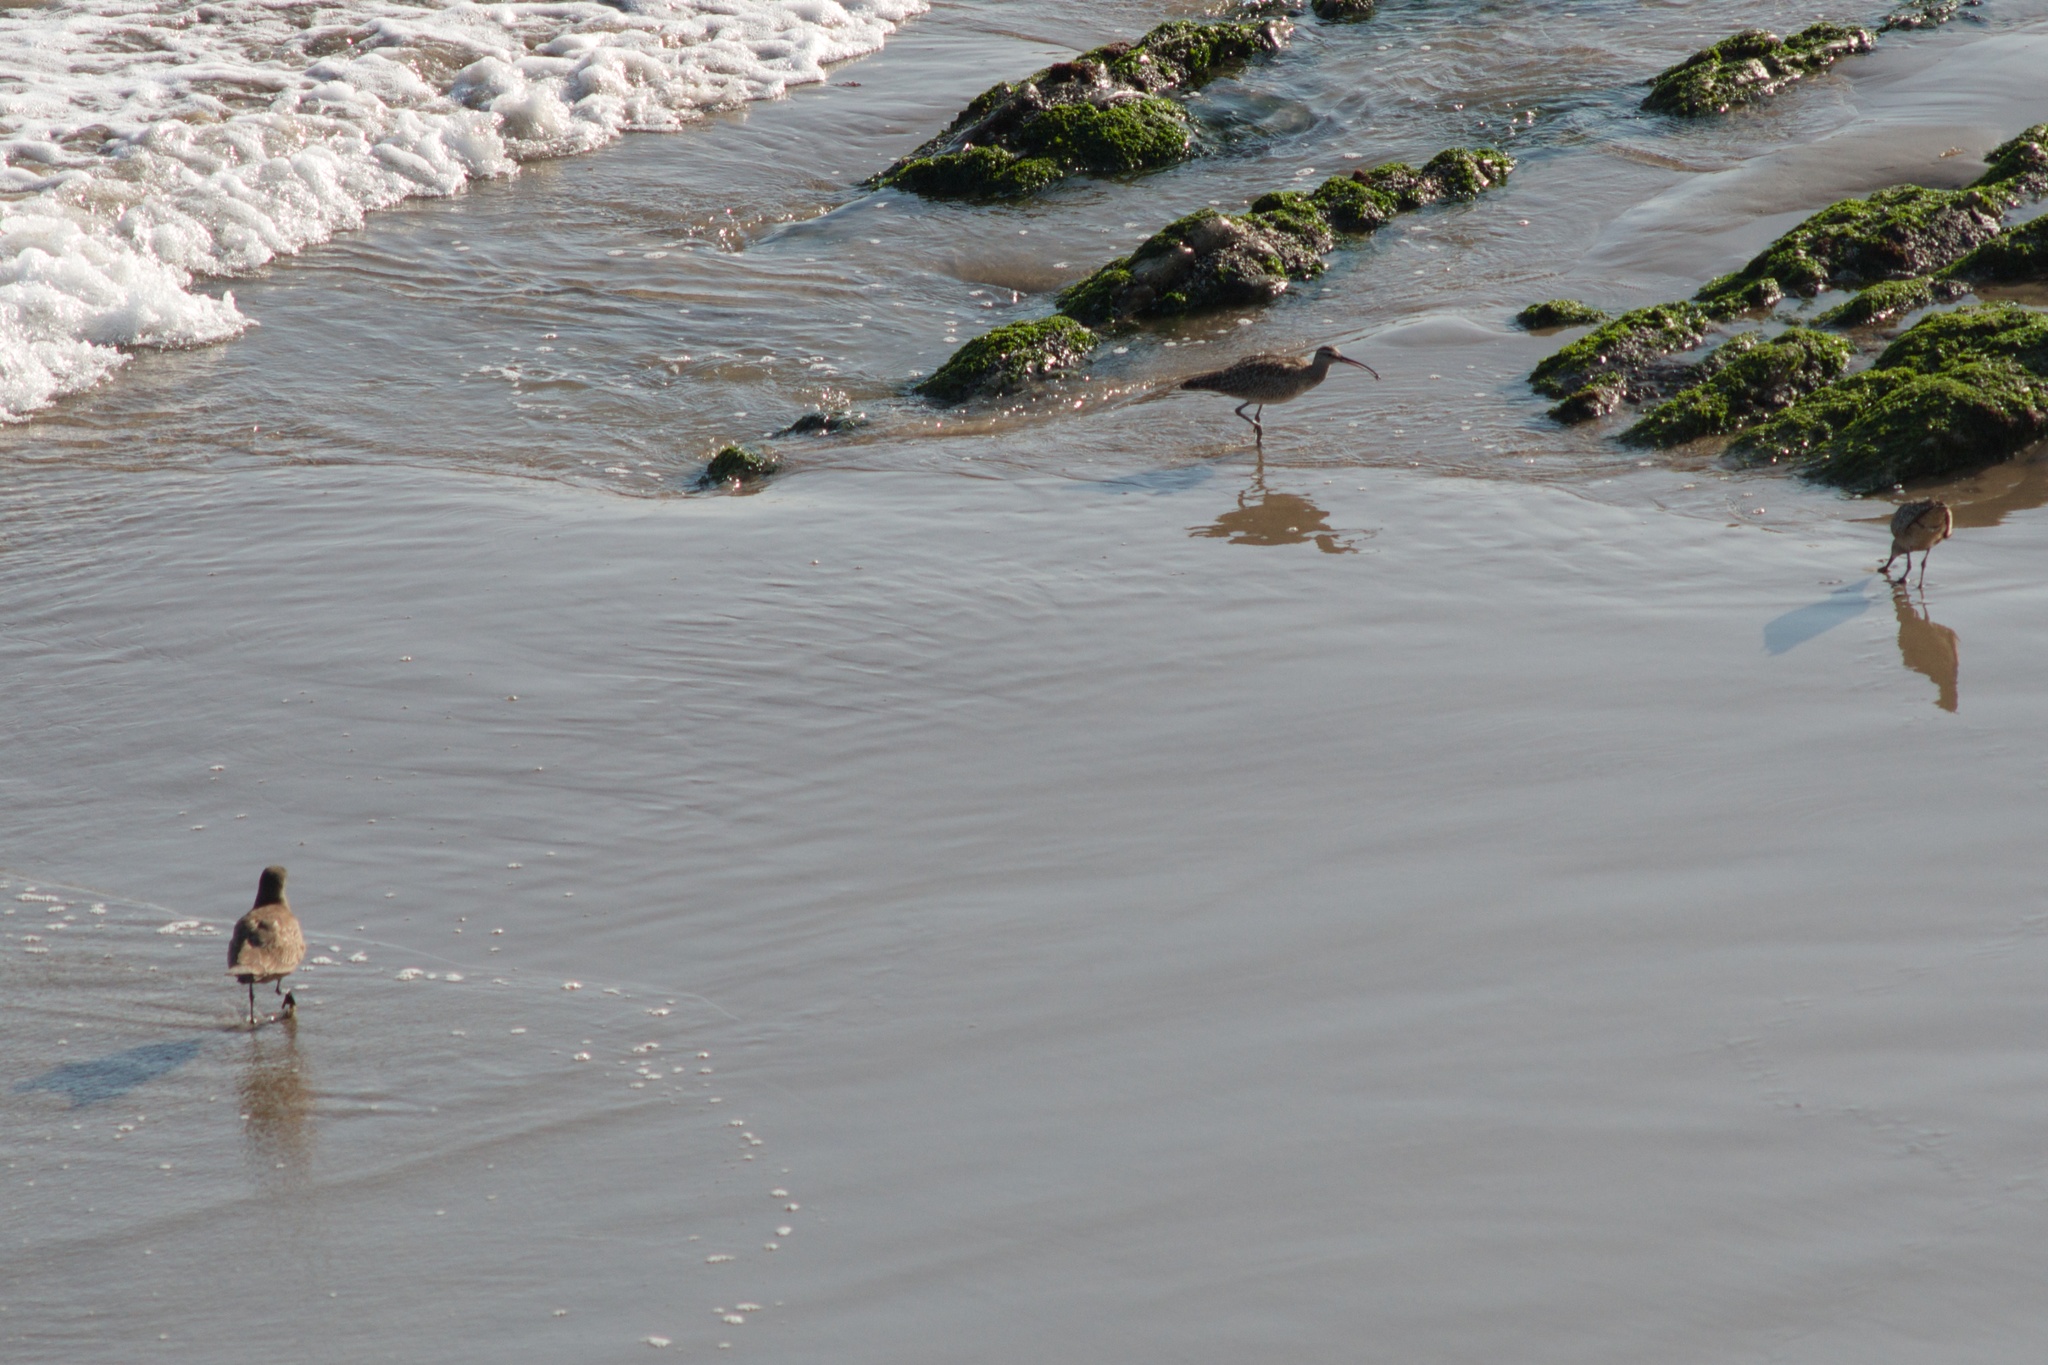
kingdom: Animalia
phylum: Chordata
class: Aves
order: Charadriiformes
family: Scolopacidae
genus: Numenius
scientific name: Numenius phaeopus
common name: Whimbrel
